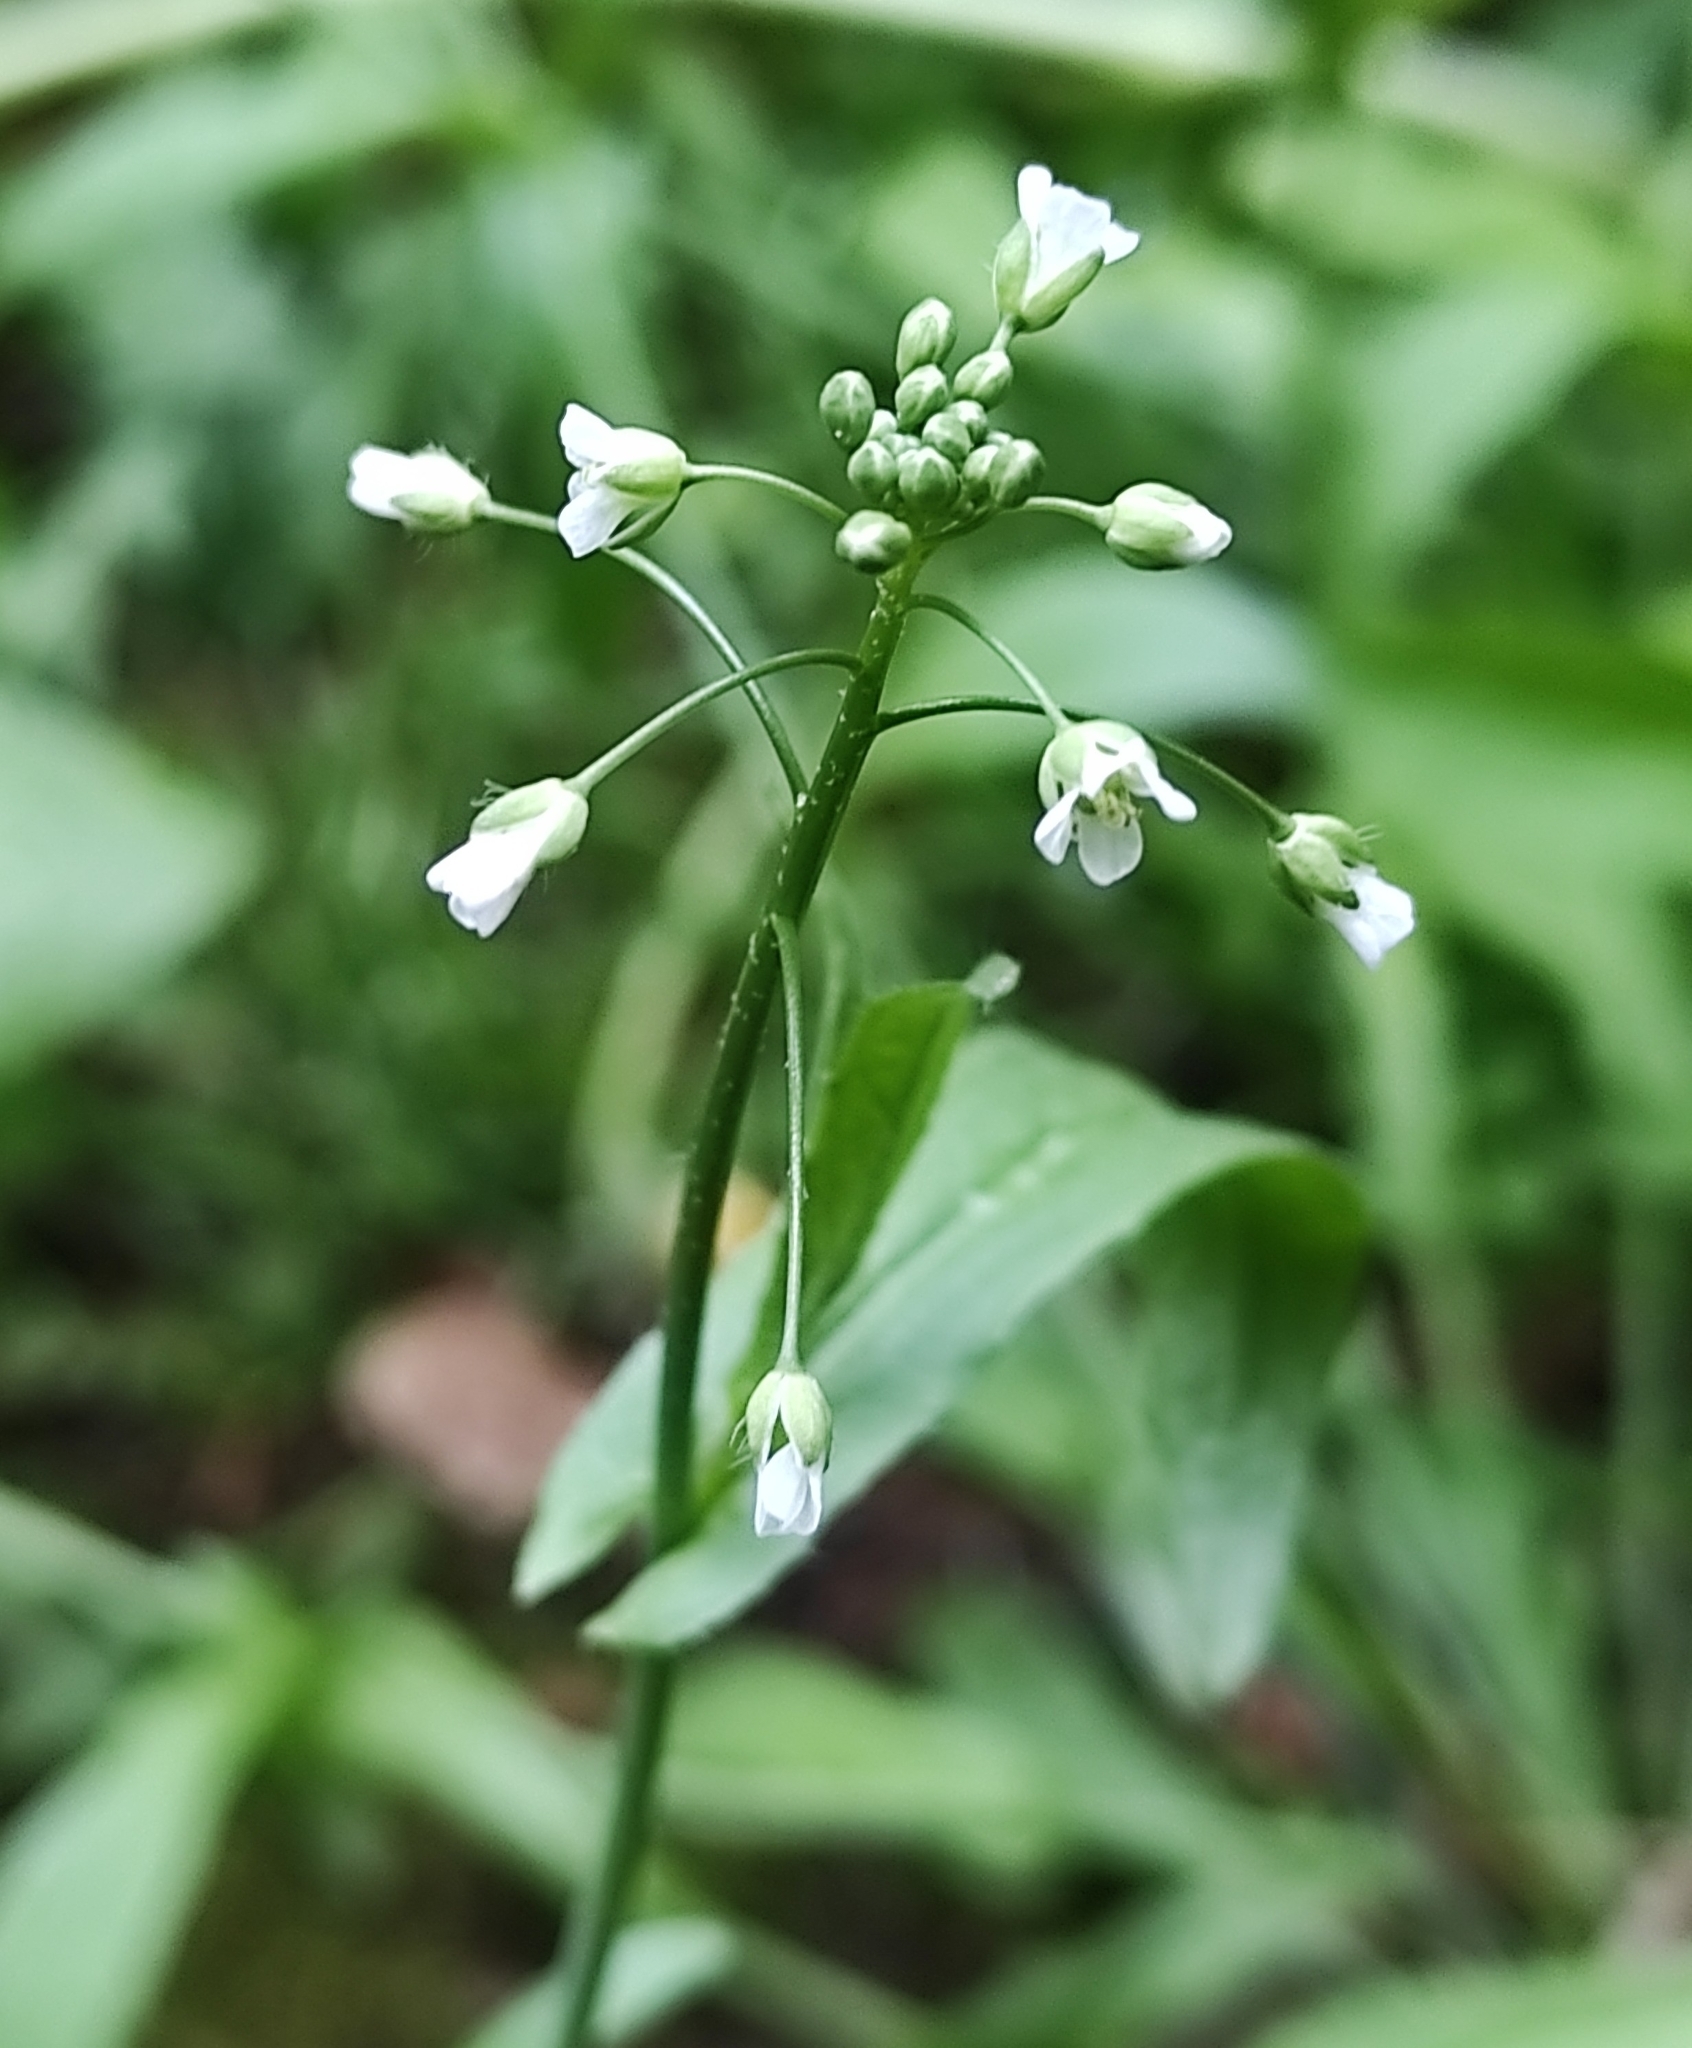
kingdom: Plantae
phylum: Tracheophyta
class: Magnoliopsida
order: Brassicales
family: Brassicaceae
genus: Capsella
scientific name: Capsella bursa-pastoris
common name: Shepherd's purse
